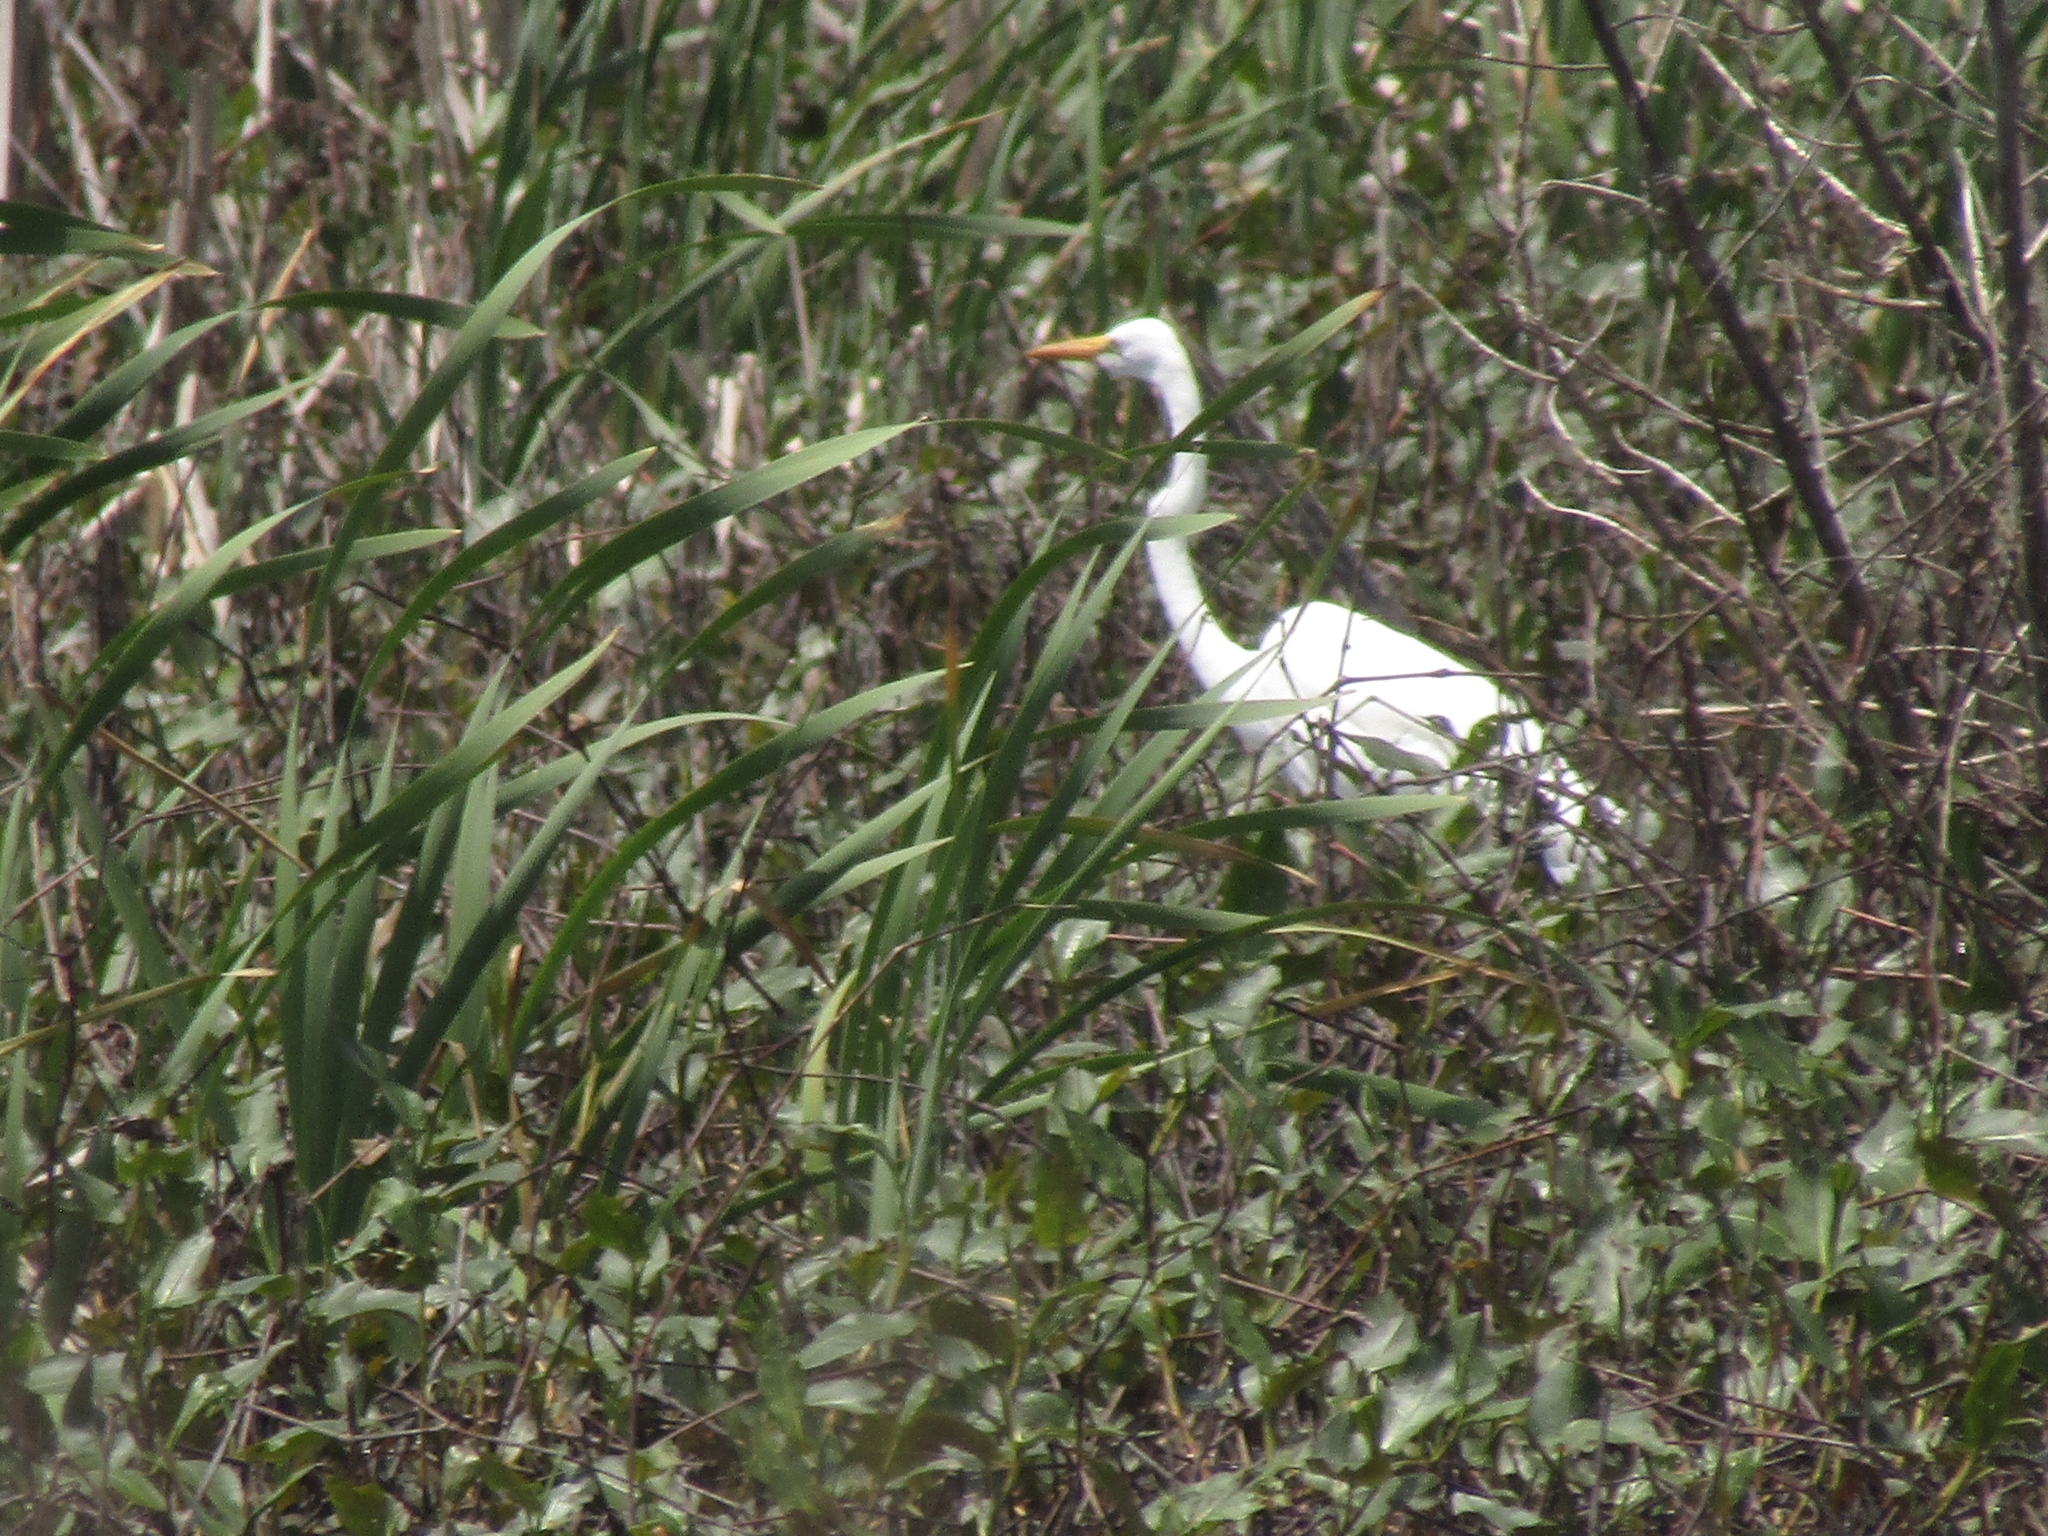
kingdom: Animalia
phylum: Chordata
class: Aves
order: Pelecaniformes
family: Ardeidae
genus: Ardea
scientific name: Ardea alba
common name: Great egret
